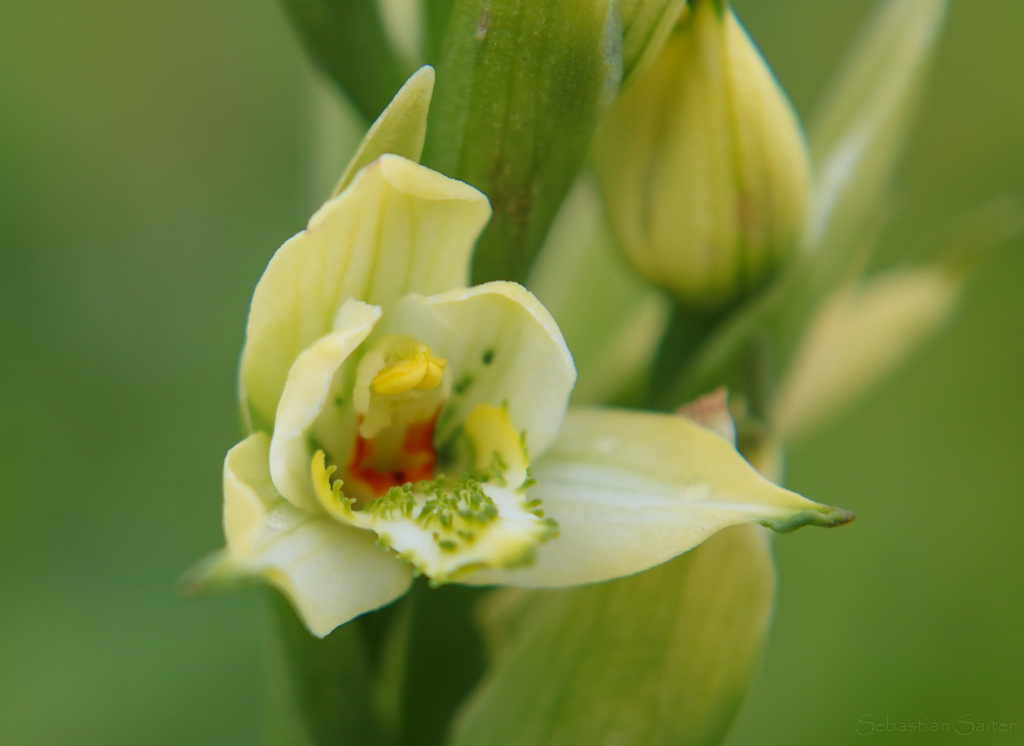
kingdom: Plantae
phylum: Tracheophyta
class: Liliopsida
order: Asparagales
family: Orchidaceae
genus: Gavilea
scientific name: Gavilea australis
